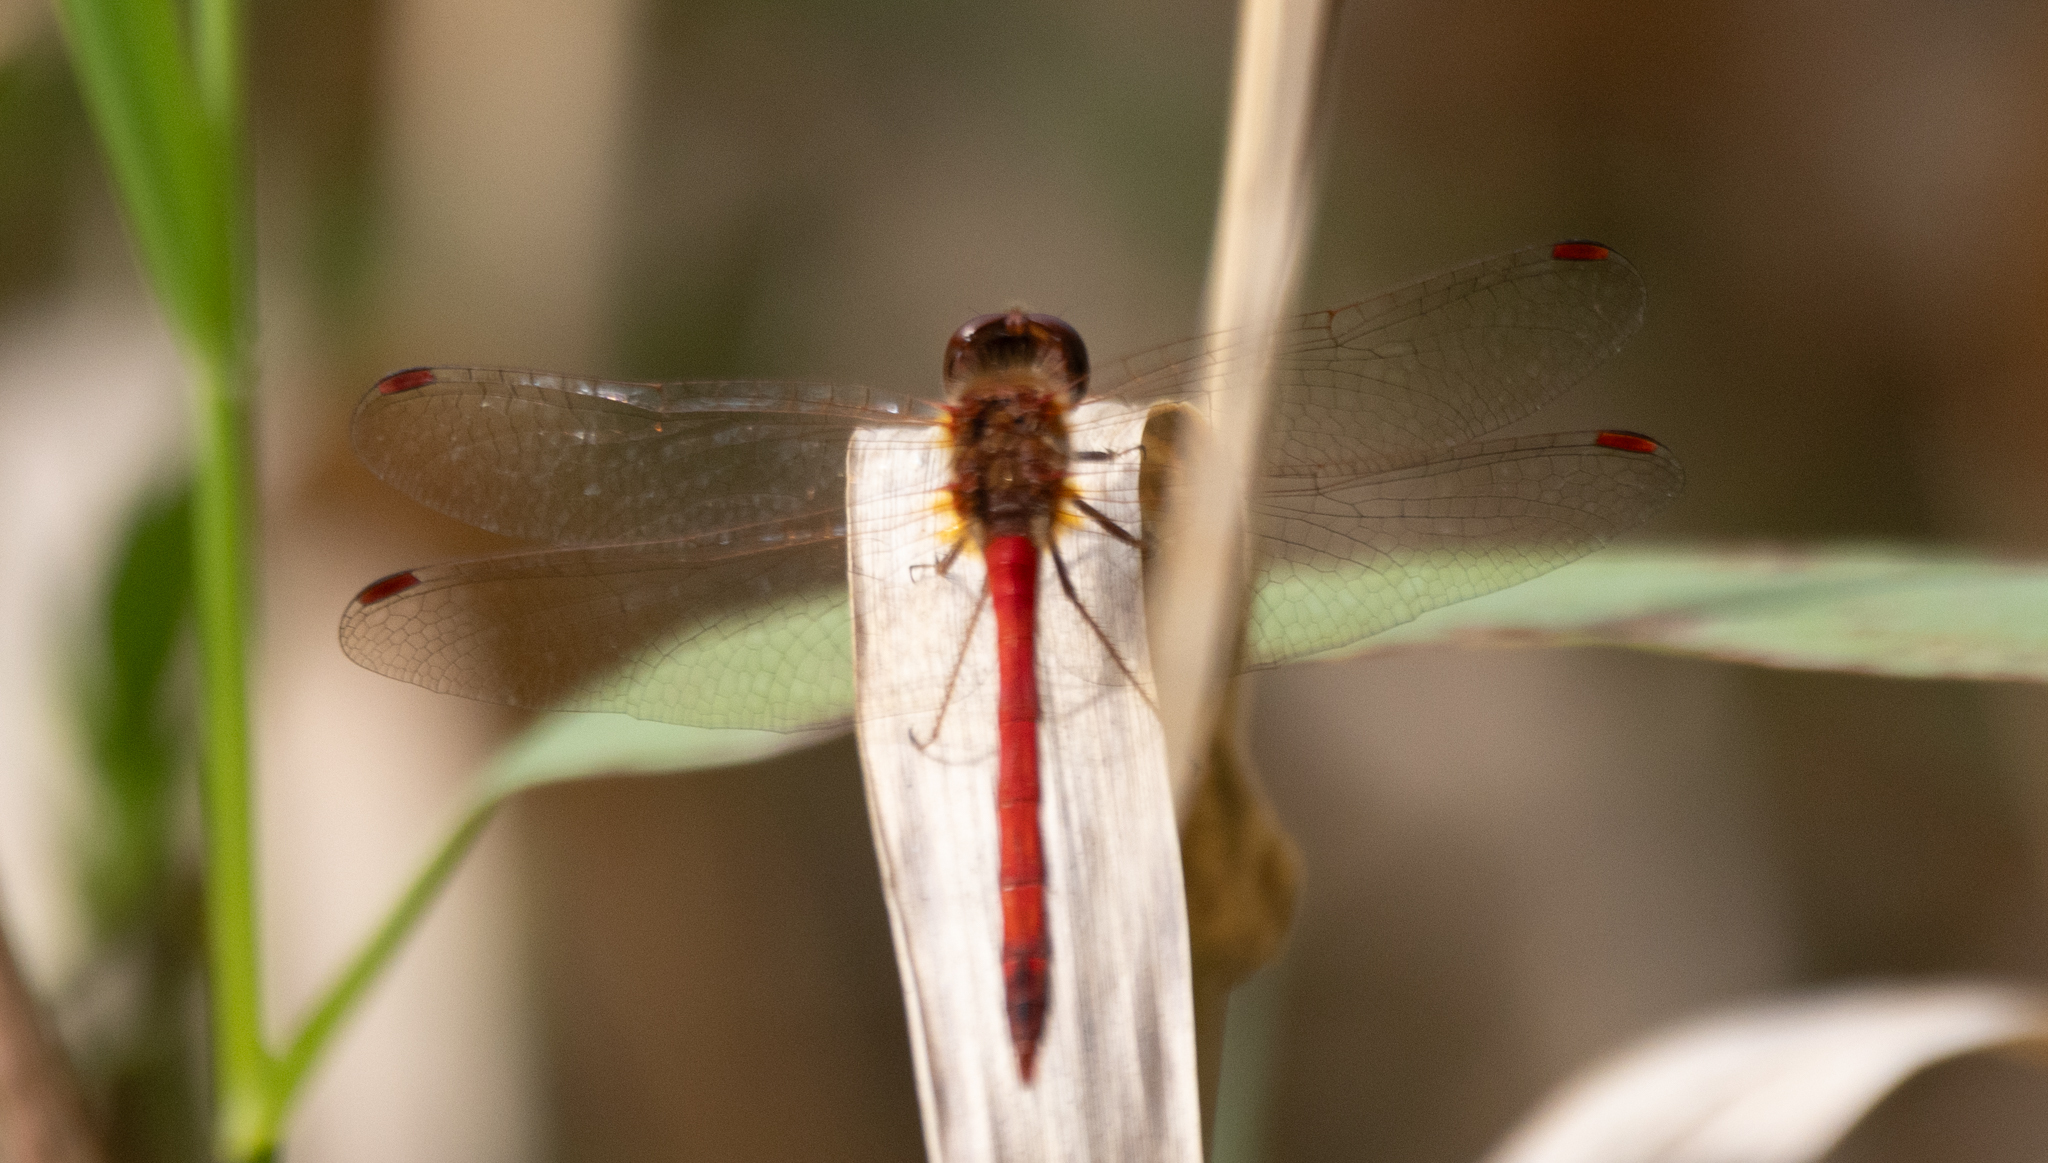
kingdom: Animalia
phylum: Arthropoda
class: Insecta
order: Odonata
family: Libellulidae
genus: Sympetrum
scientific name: Sympetrum vicinum
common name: Autumn meadowhawk
